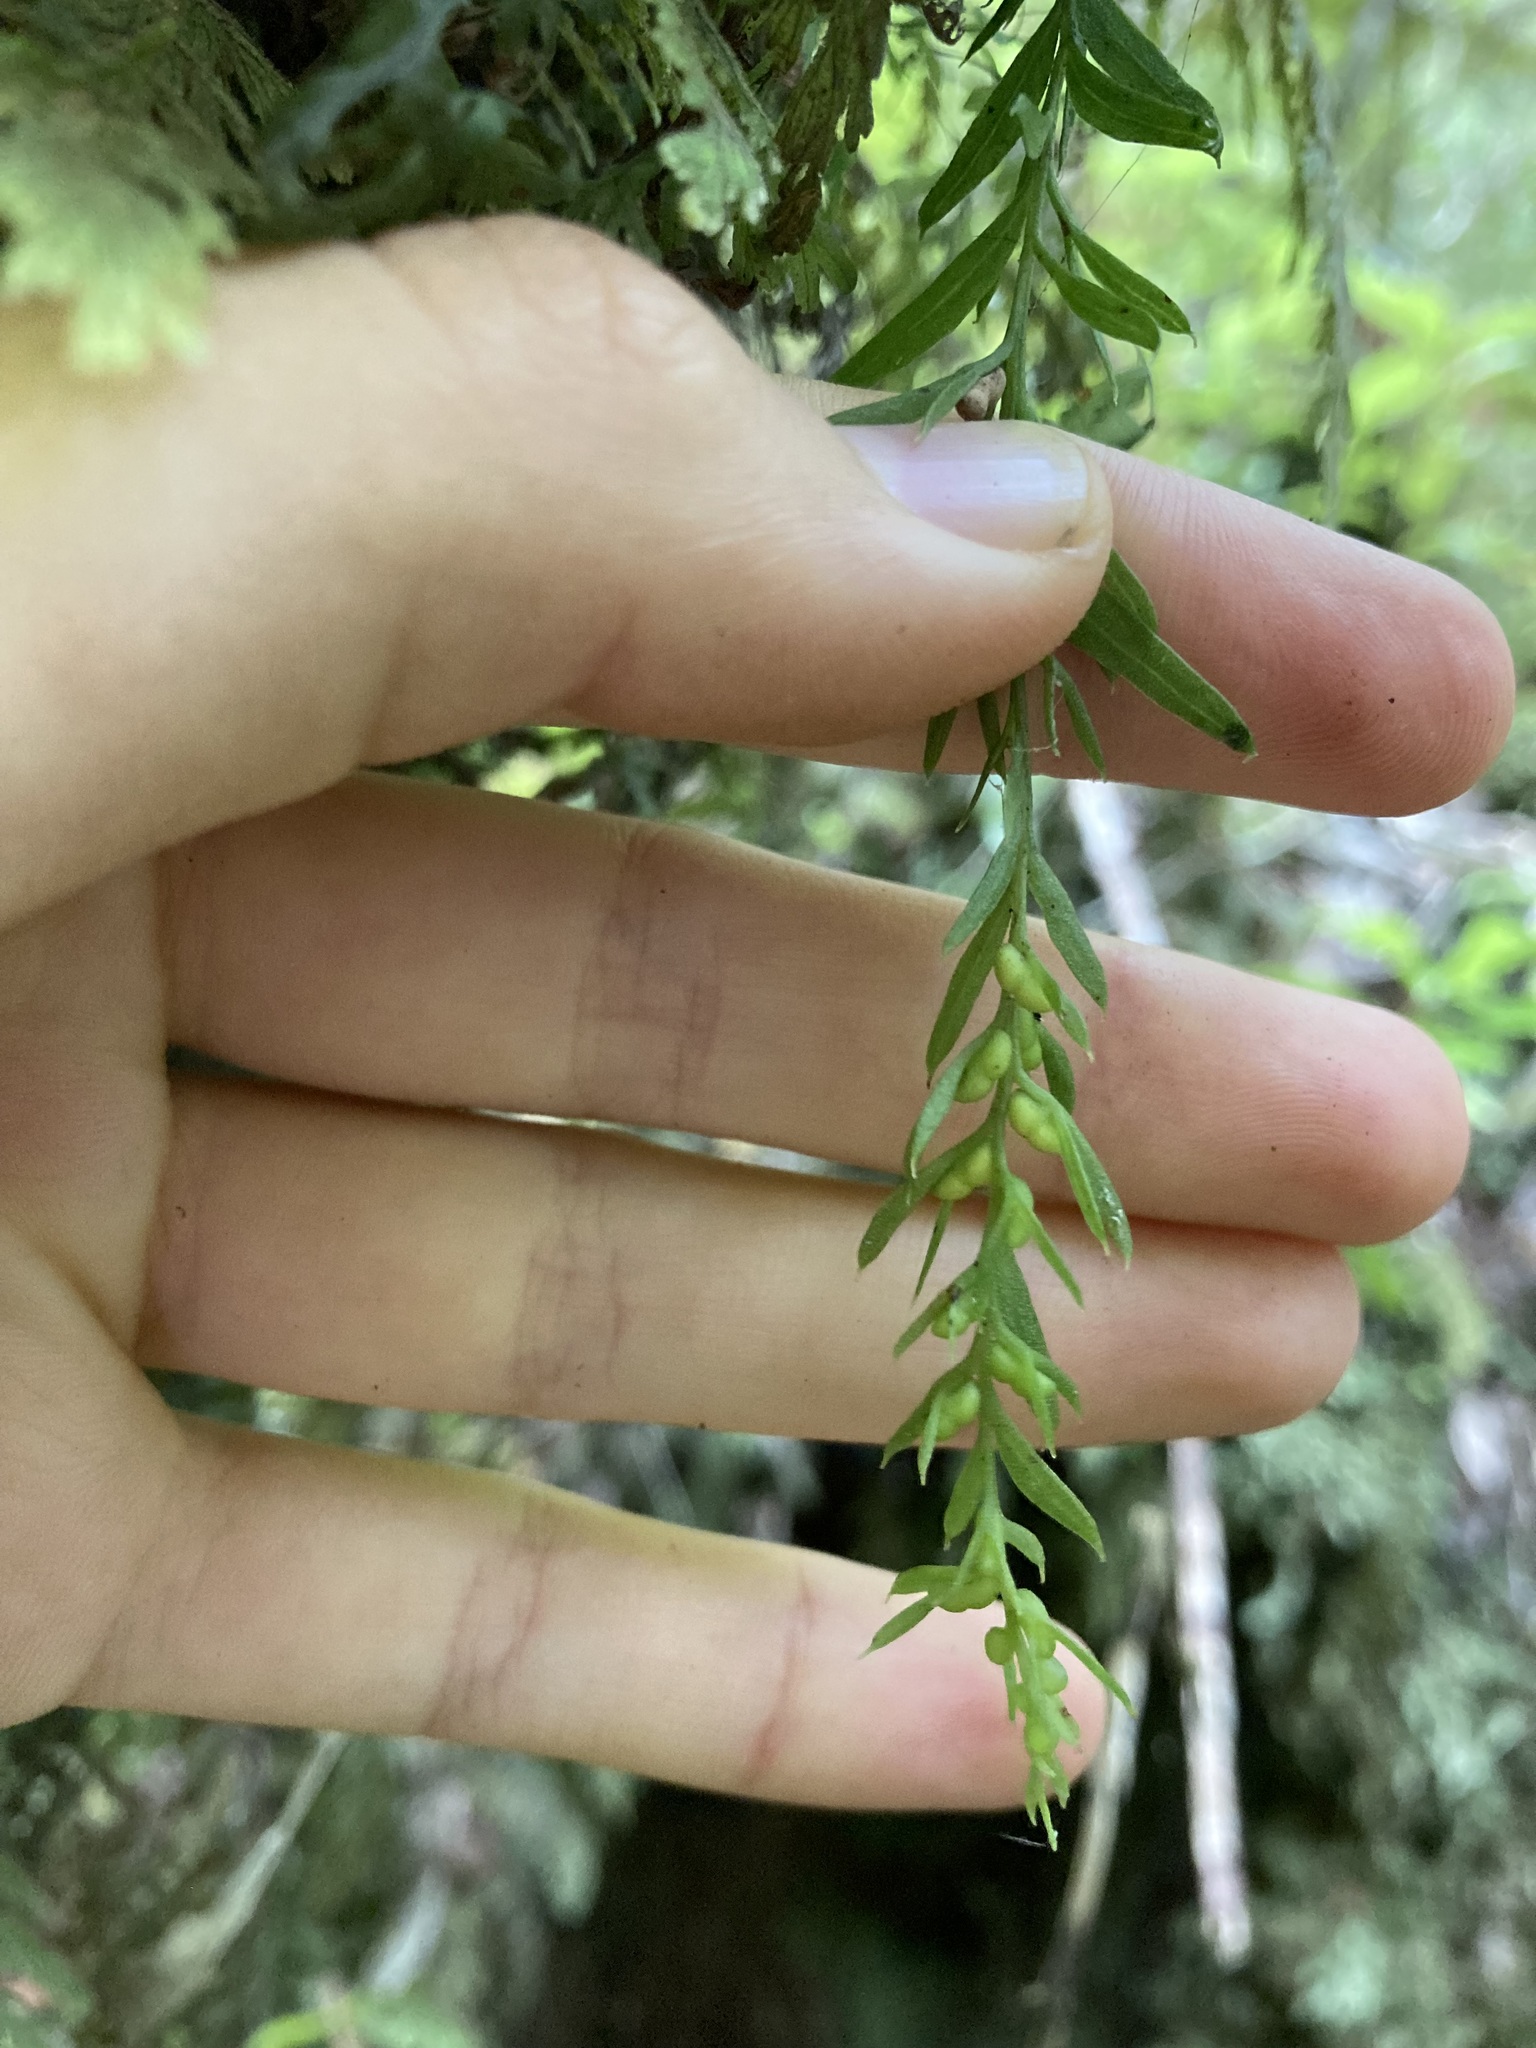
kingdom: Plantae
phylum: Tracheophyta
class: Polypodiopsida
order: Psilotales
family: Psilotaceae
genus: Tmesipteris
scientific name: Tmesipteris elongata
